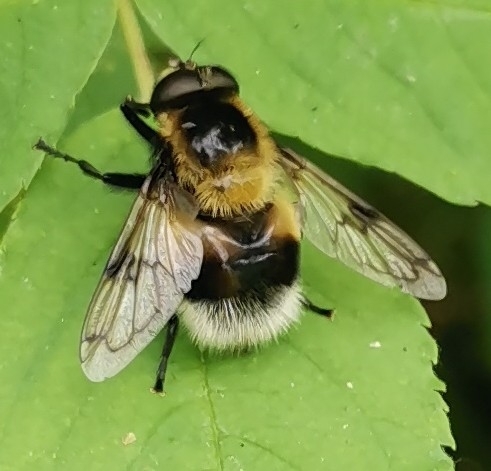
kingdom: Animalia
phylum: Arthropoda
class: Insecta
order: Diptera
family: Syrphidae
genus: Volucella
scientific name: Volucella bombylans
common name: Bumble bee hover fly
